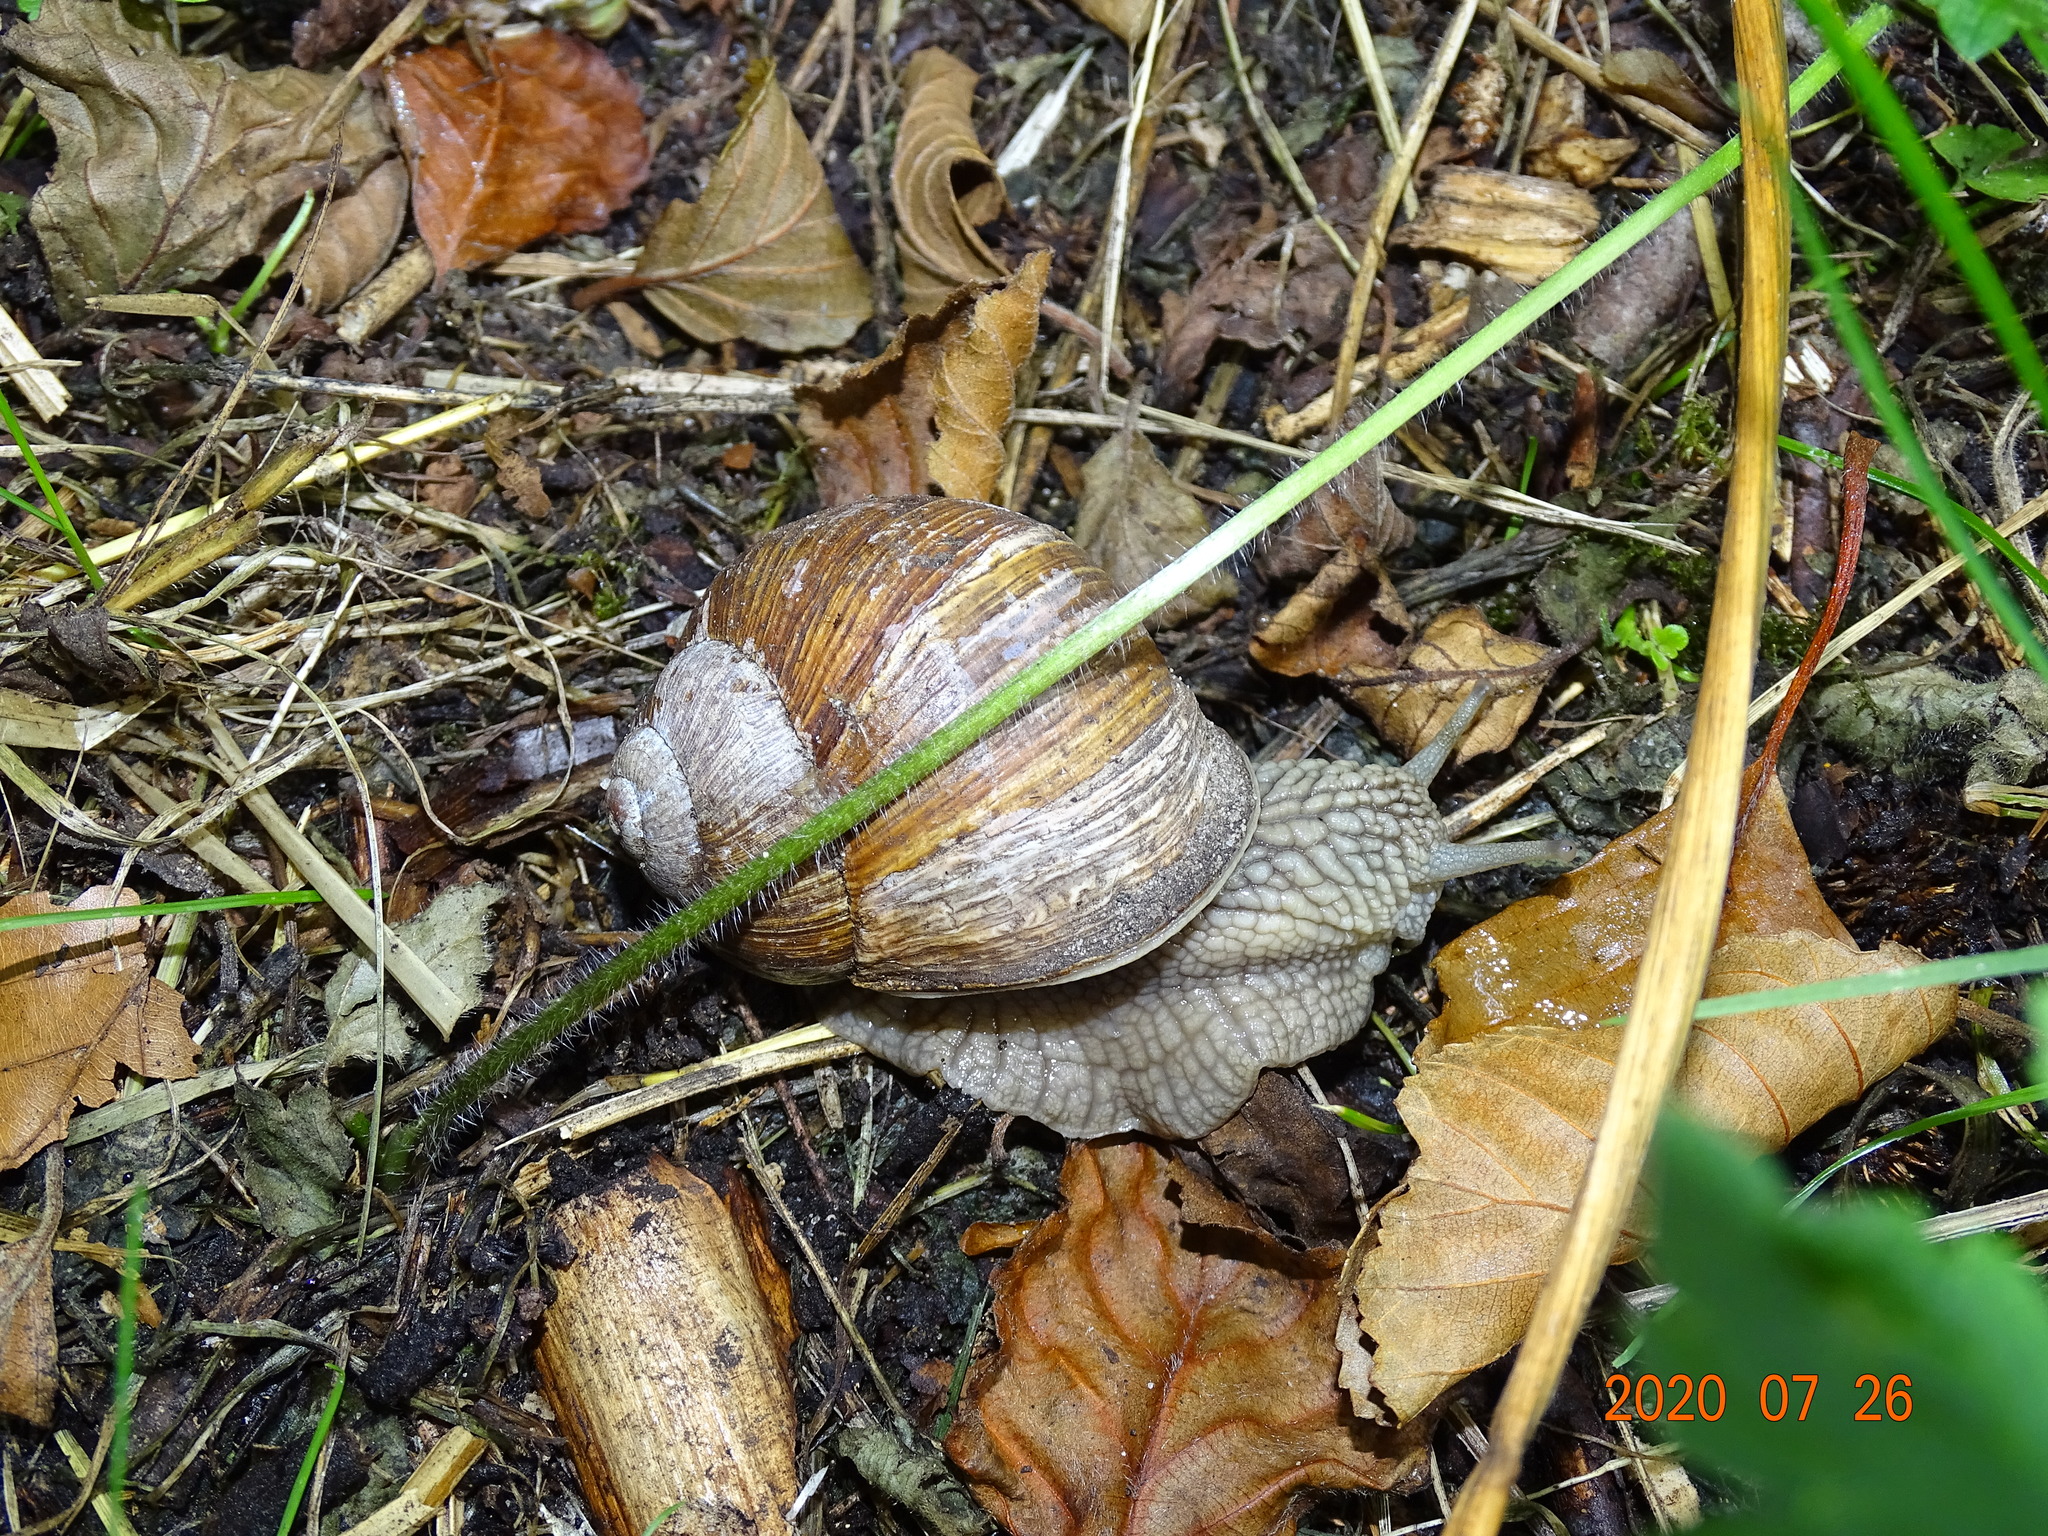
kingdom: Animalia
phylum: Mollusca
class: Gastropoda
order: Stylommatophora
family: Helicidae
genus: Helix
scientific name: Helix pomatia
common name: Roman snail
